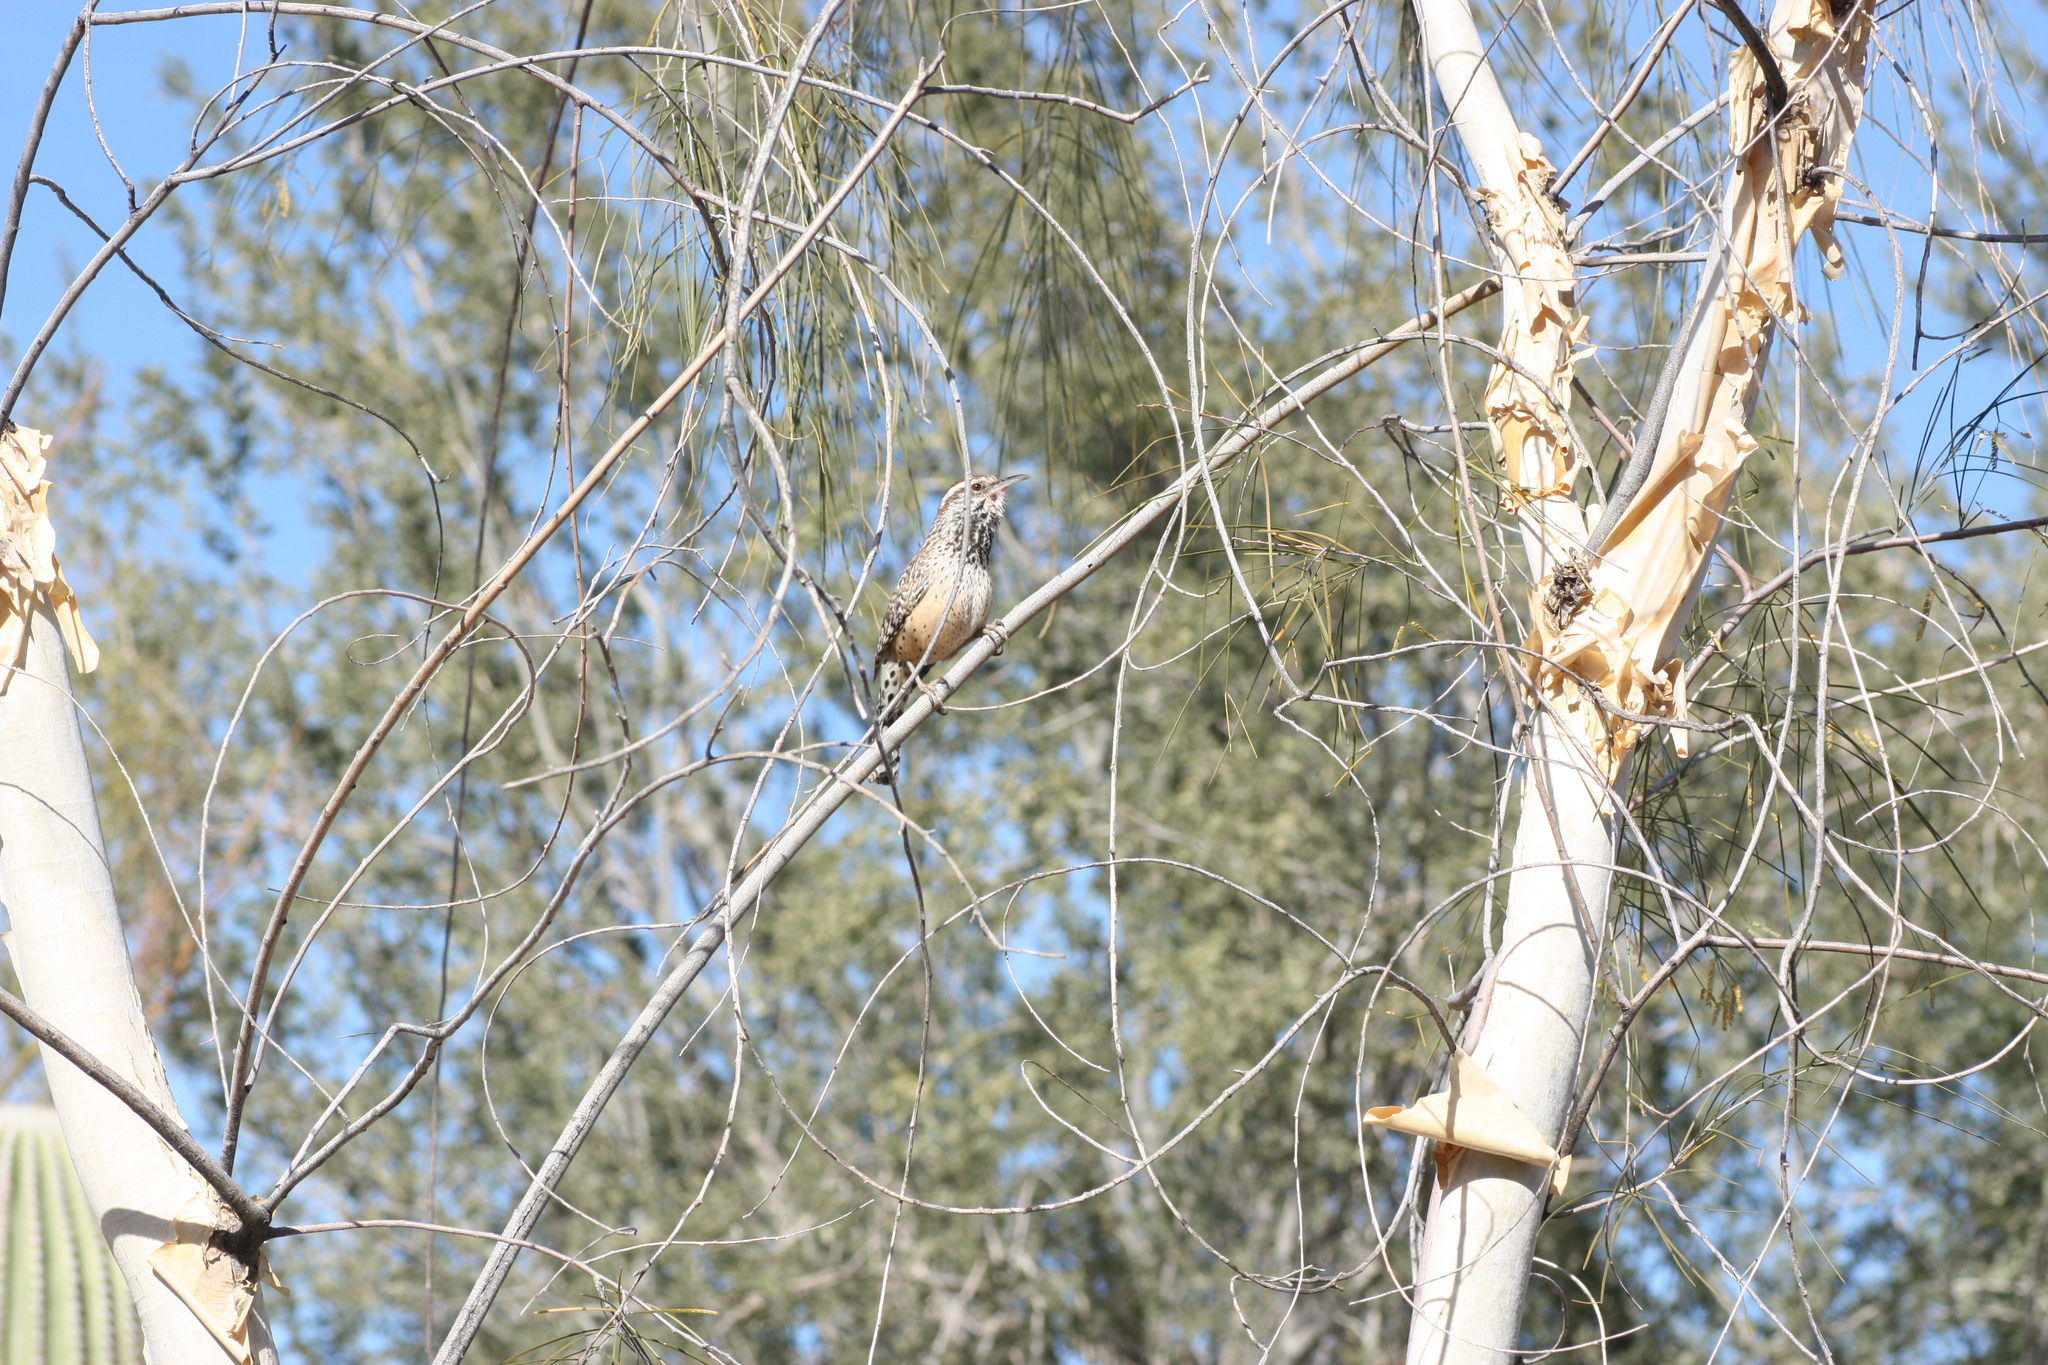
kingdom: Animalia
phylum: Chordata
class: Aves
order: Passeriformes
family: Troglodytidae
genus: Campylorhynchus
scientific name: Campylorhynchus brunneicapillus
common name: Cactus wren
